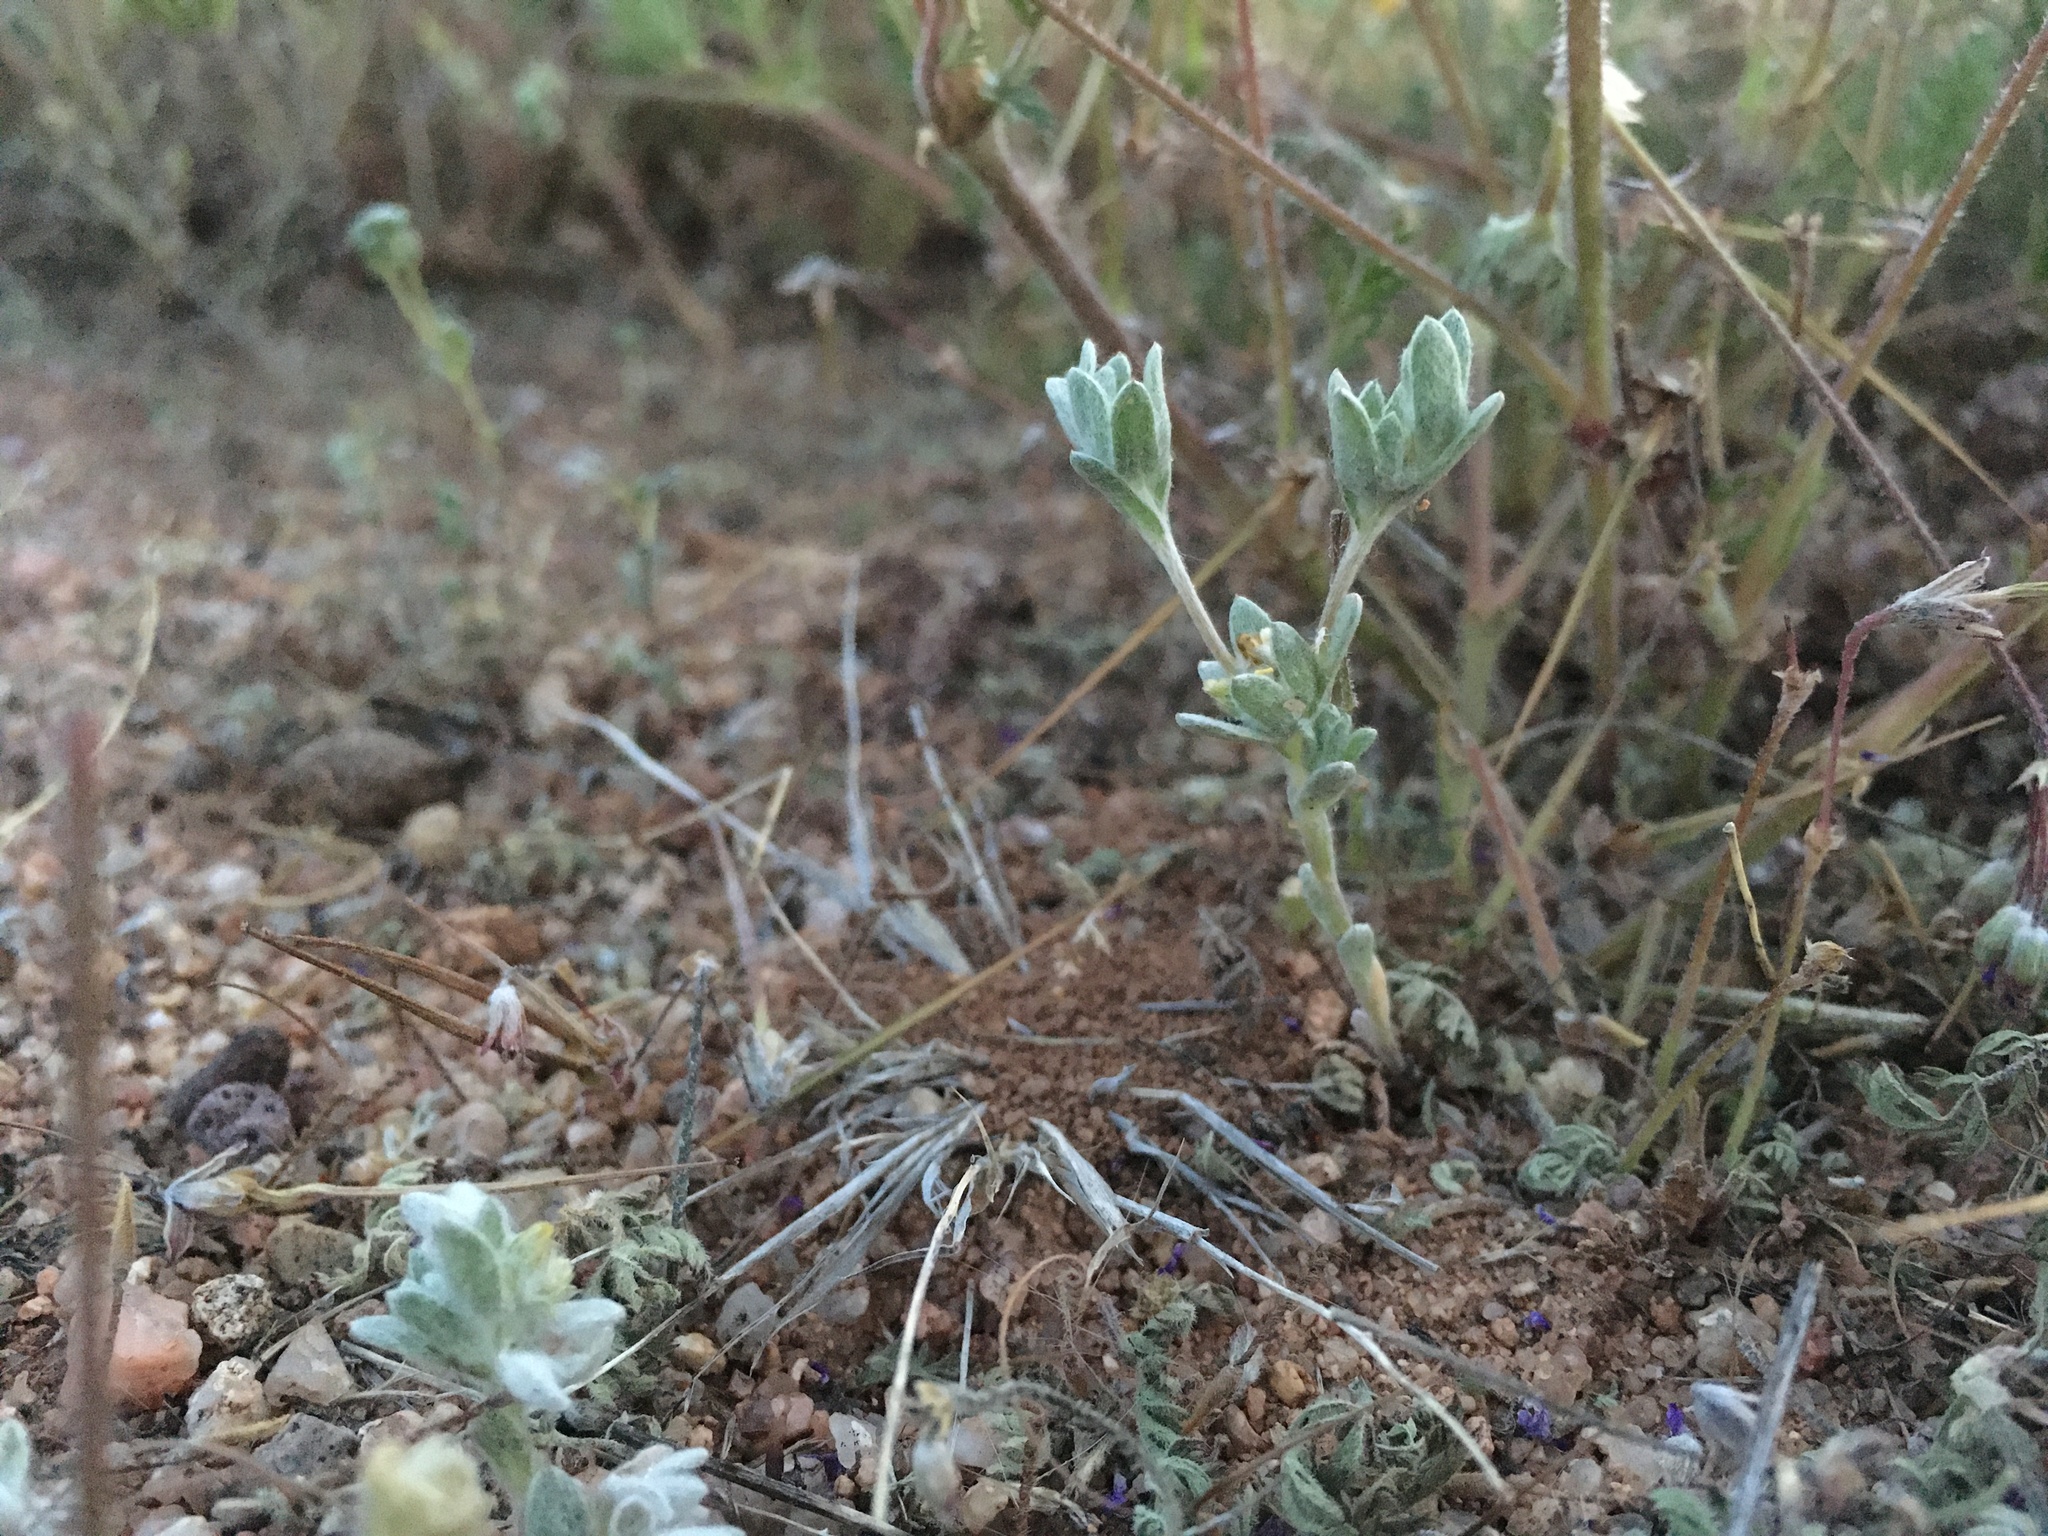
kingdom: Plantae
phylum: Tracheophyta
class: Magnoliopsida
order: Asterales
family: Asteraceae
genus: Logfia
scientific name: Logfia depressa
